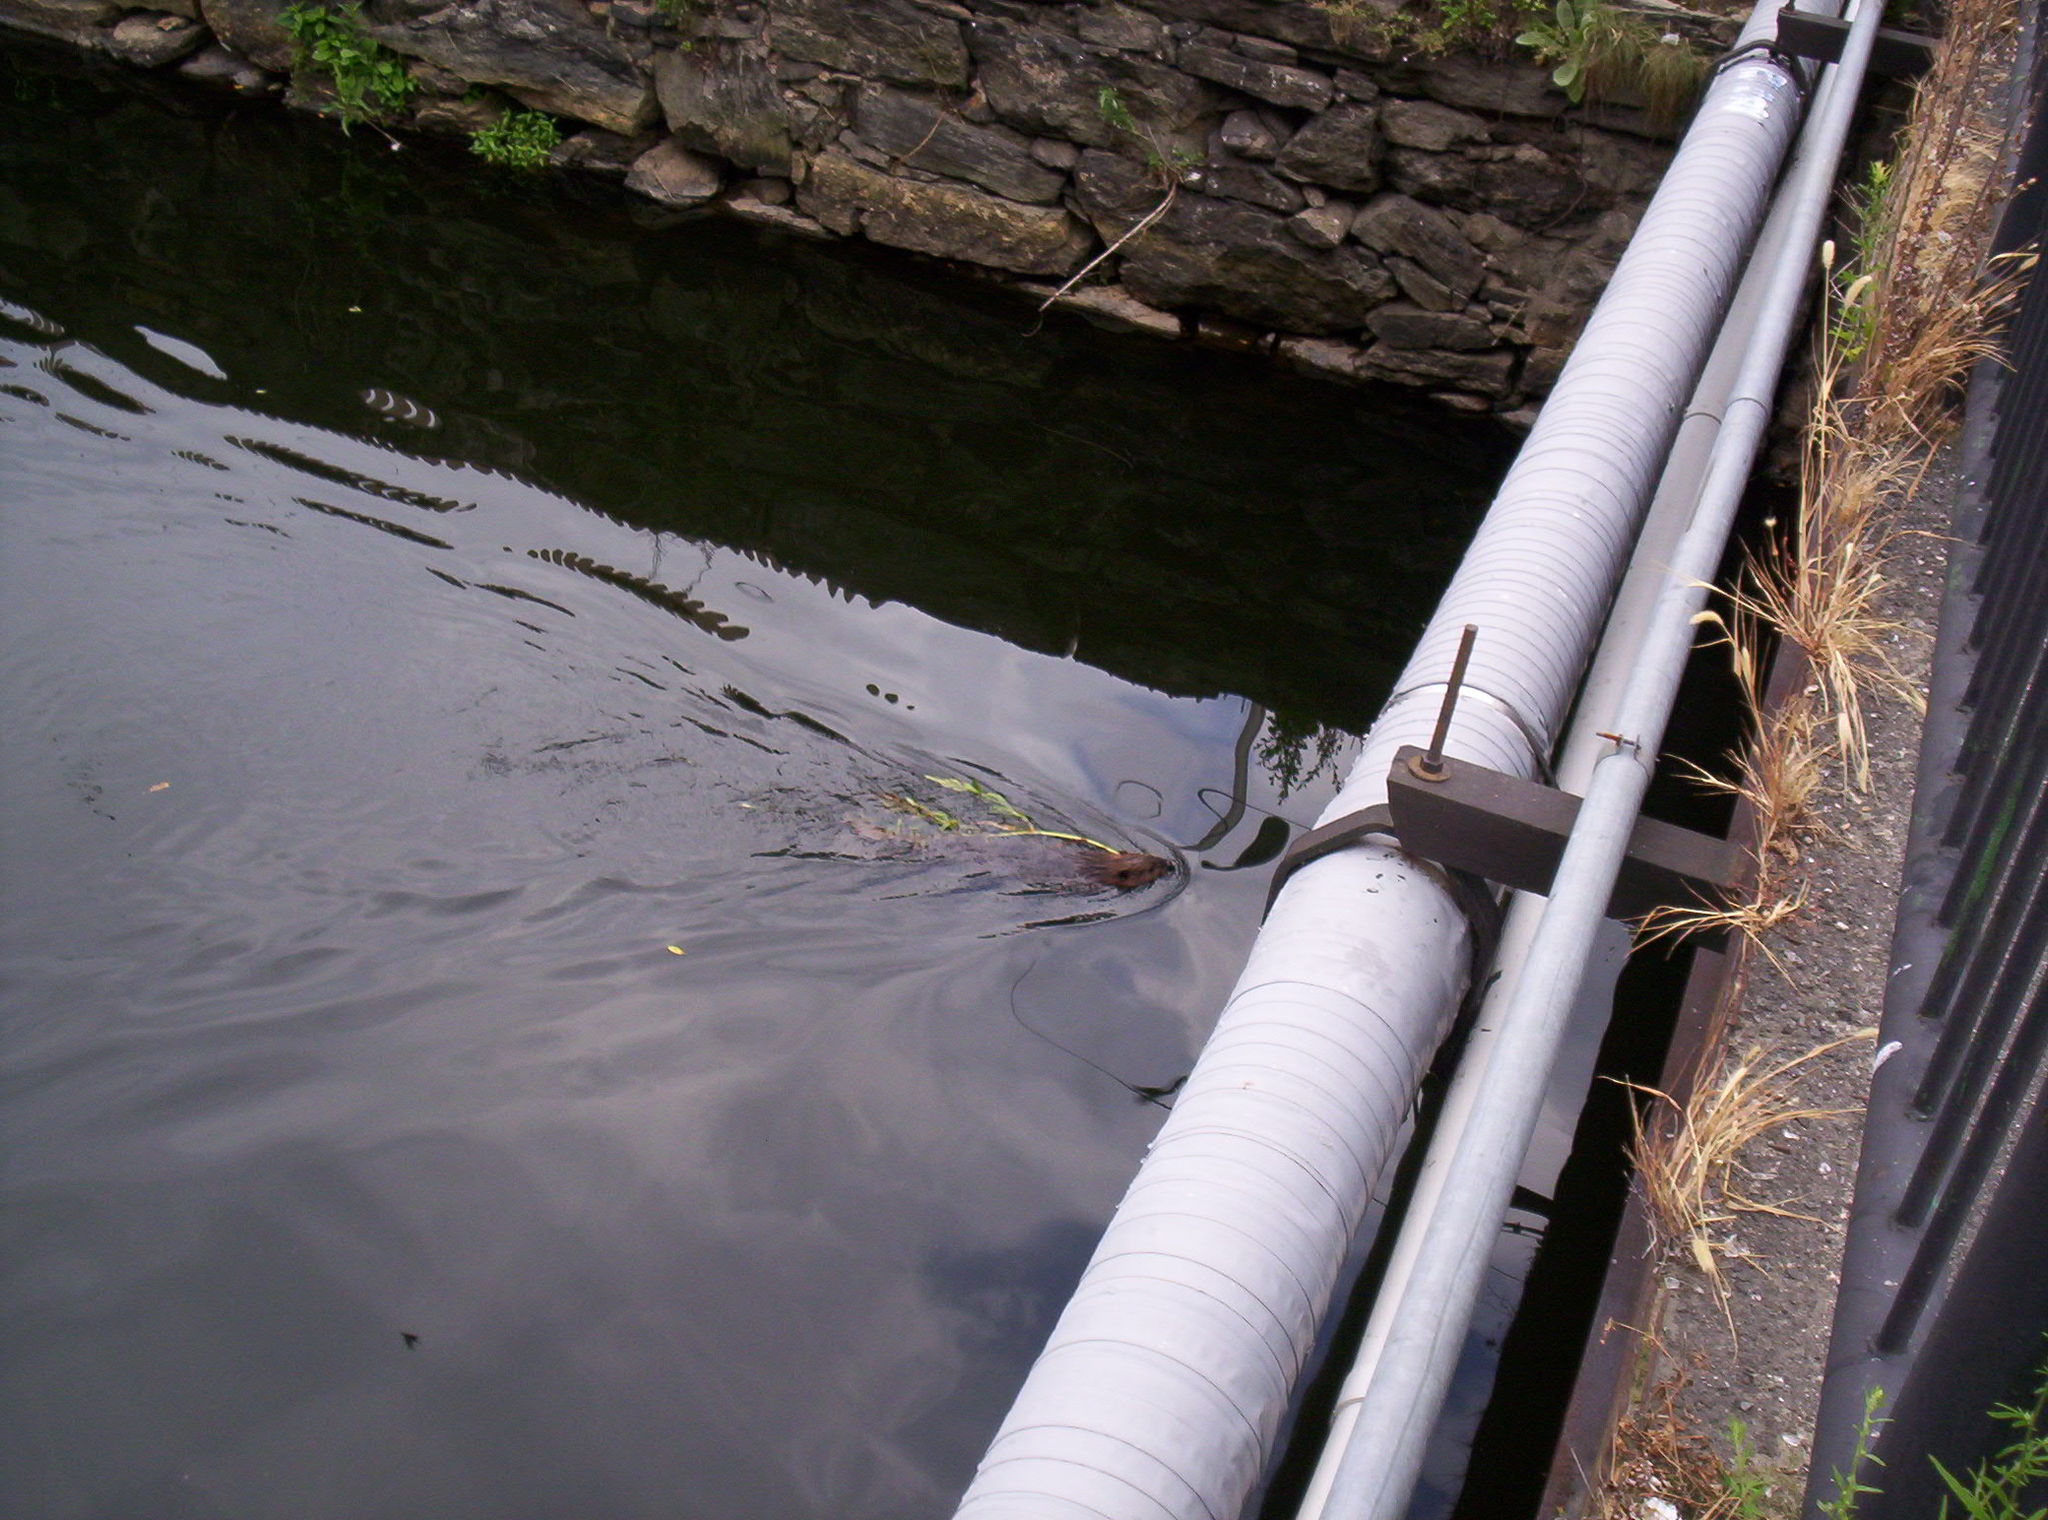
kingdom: Animalia
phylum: Chordata
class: Mammalia
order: Rodentia
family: Cricetidae
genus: Ondatra
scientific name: Ondatra zibethicus
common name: Muskrat
